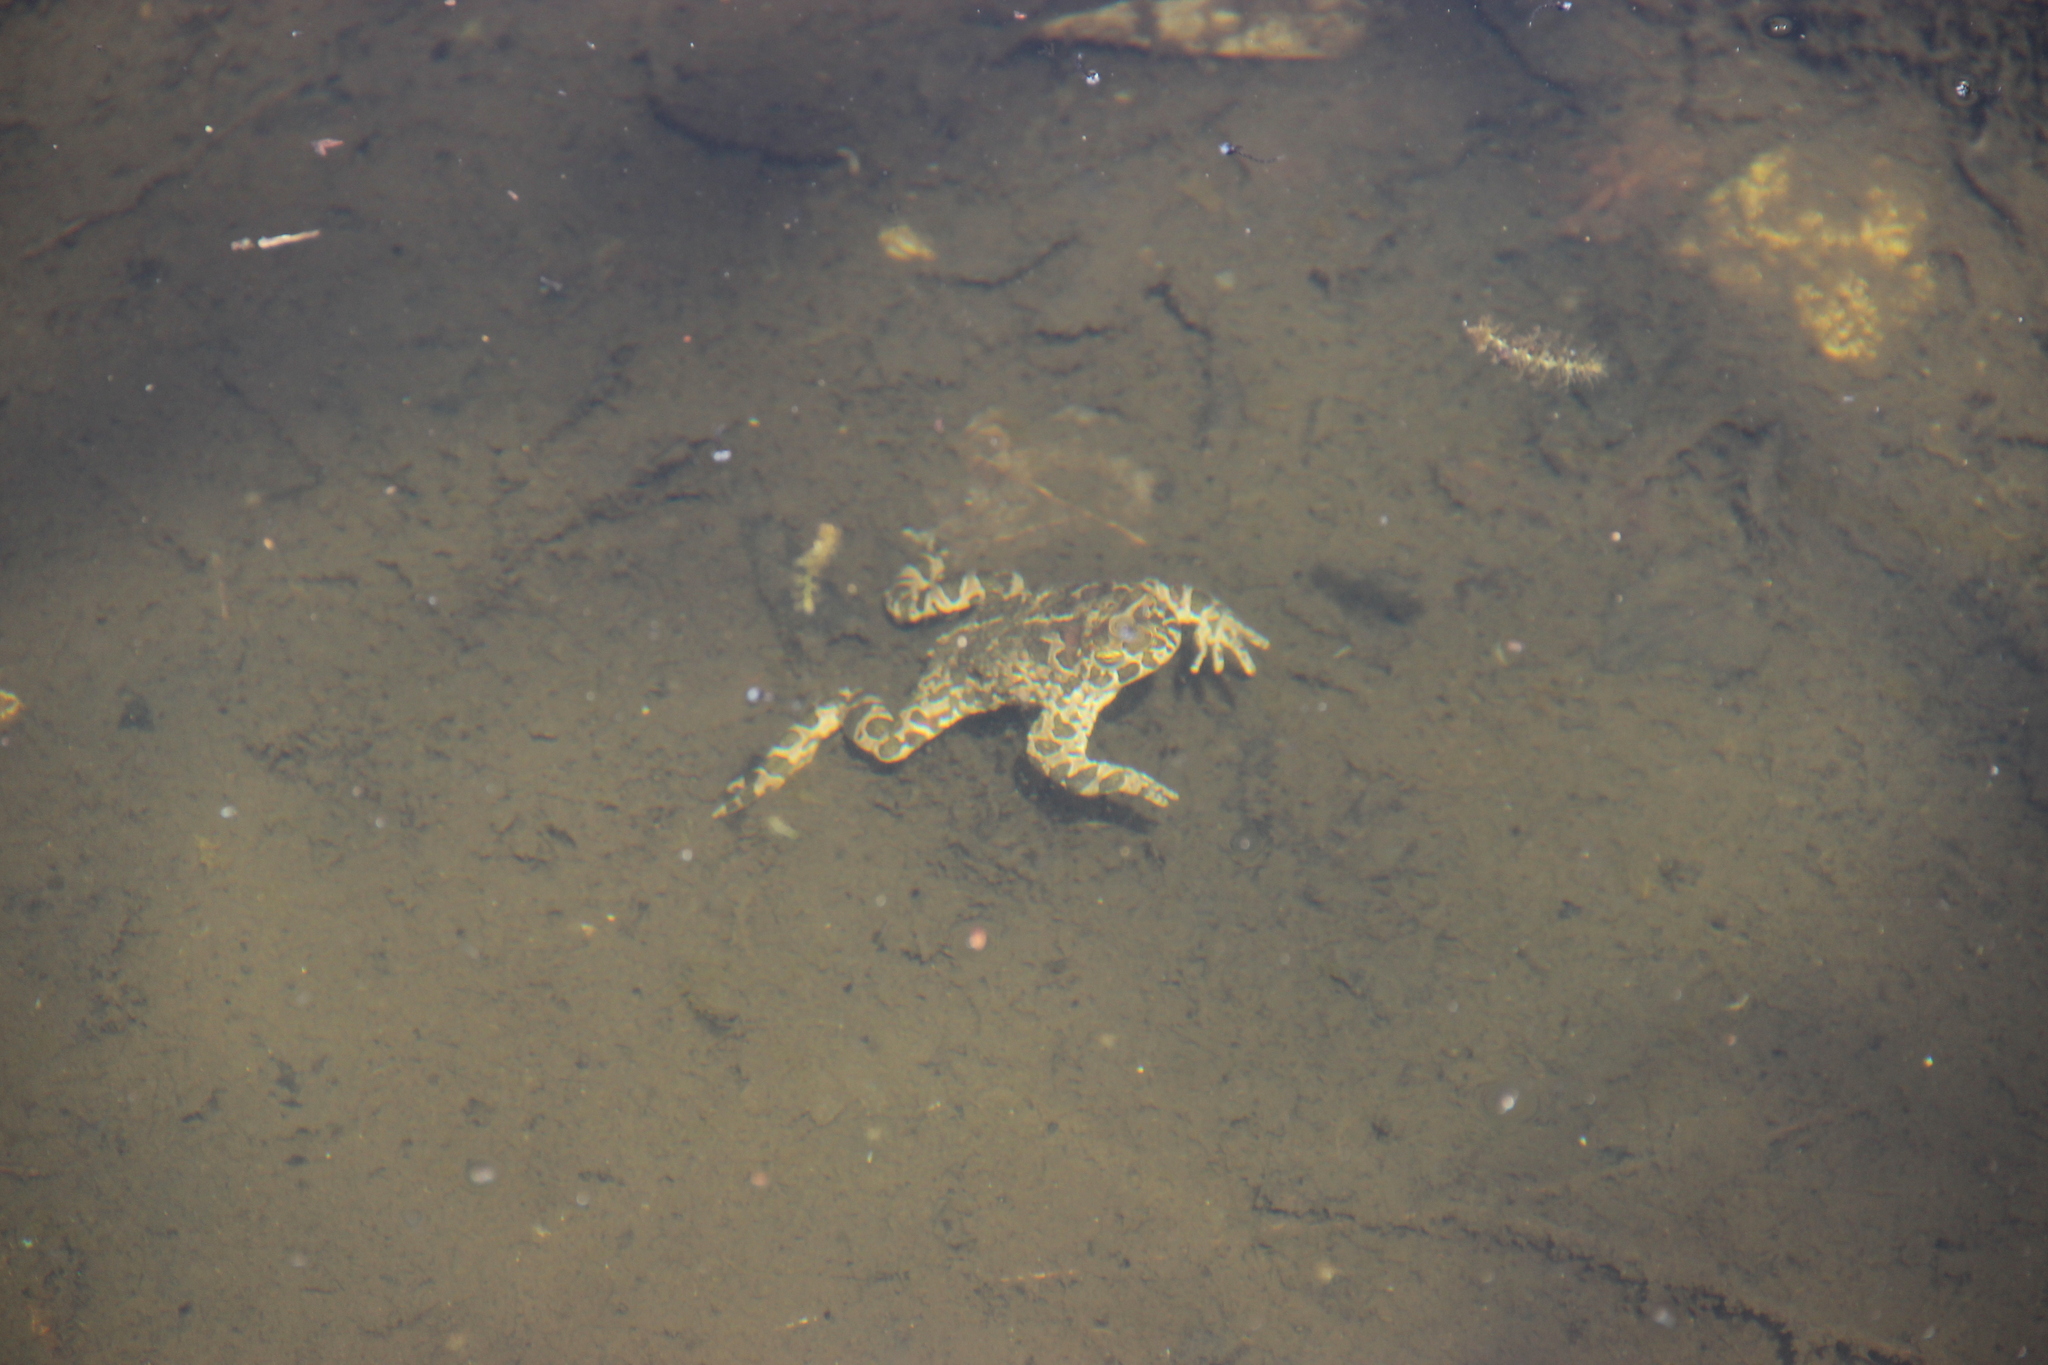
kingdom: Animalia
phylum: Chordata
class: Amphibia
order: Anura
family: Bufonidae
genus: Bufotes
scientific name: Bufotes viridis
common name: European green toad
